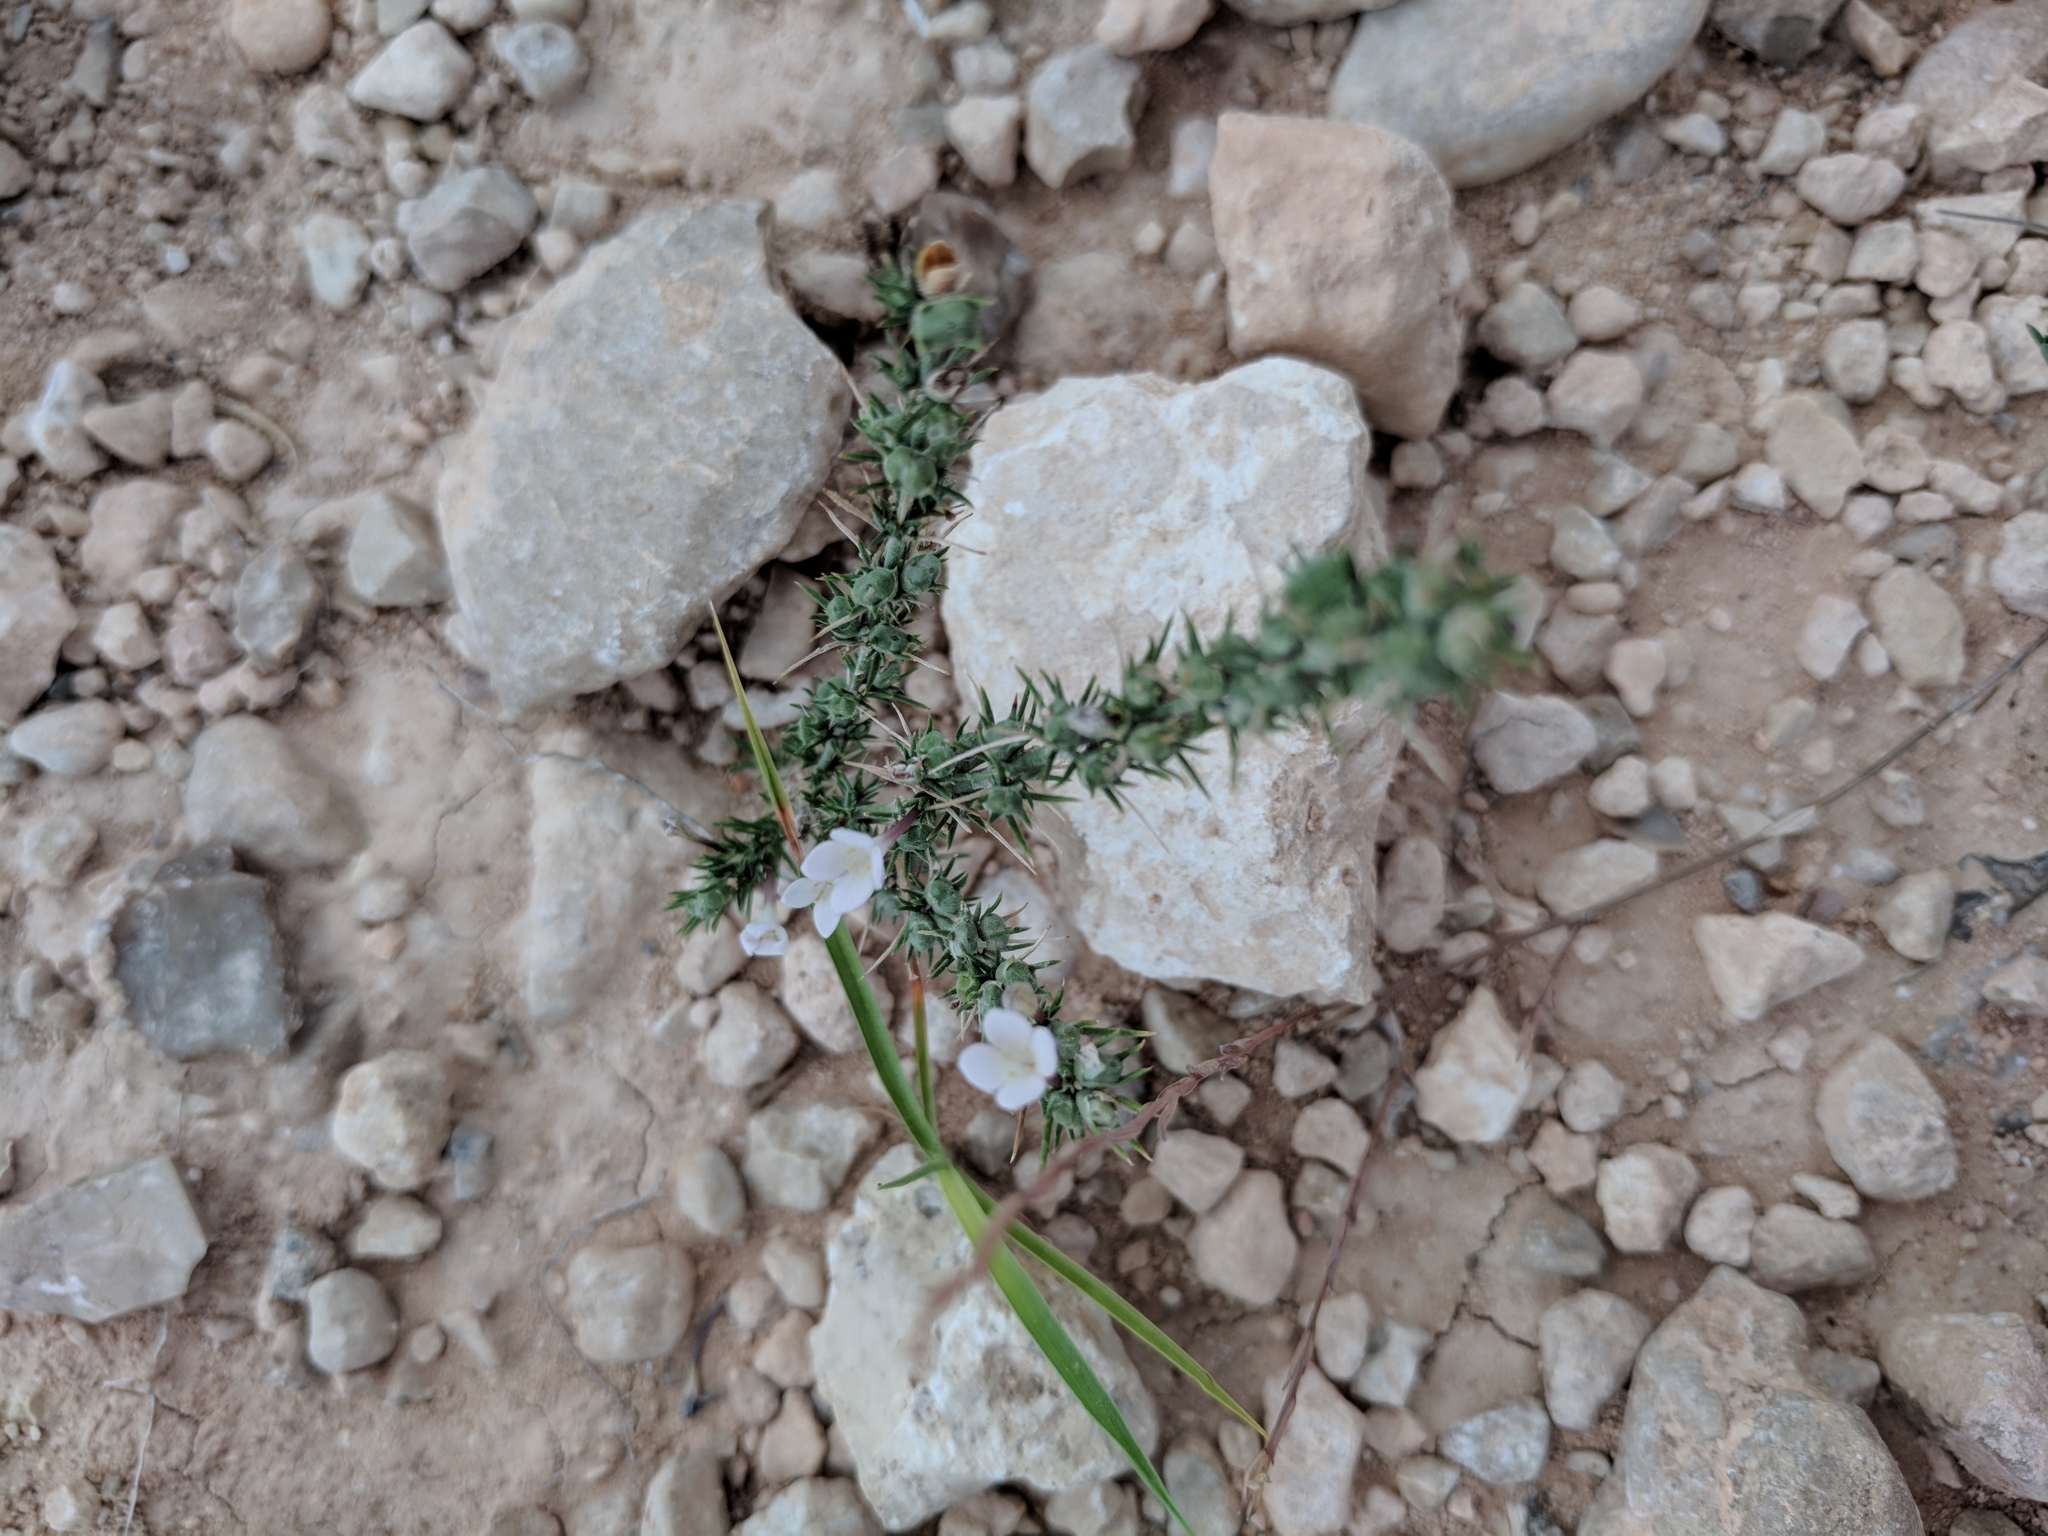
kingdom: Plantae
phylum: Tracheophyta
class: Magnoliopsida
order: Gentianales
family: Rubiaceae
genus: Houstonia
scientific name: Houstonia acerosa
